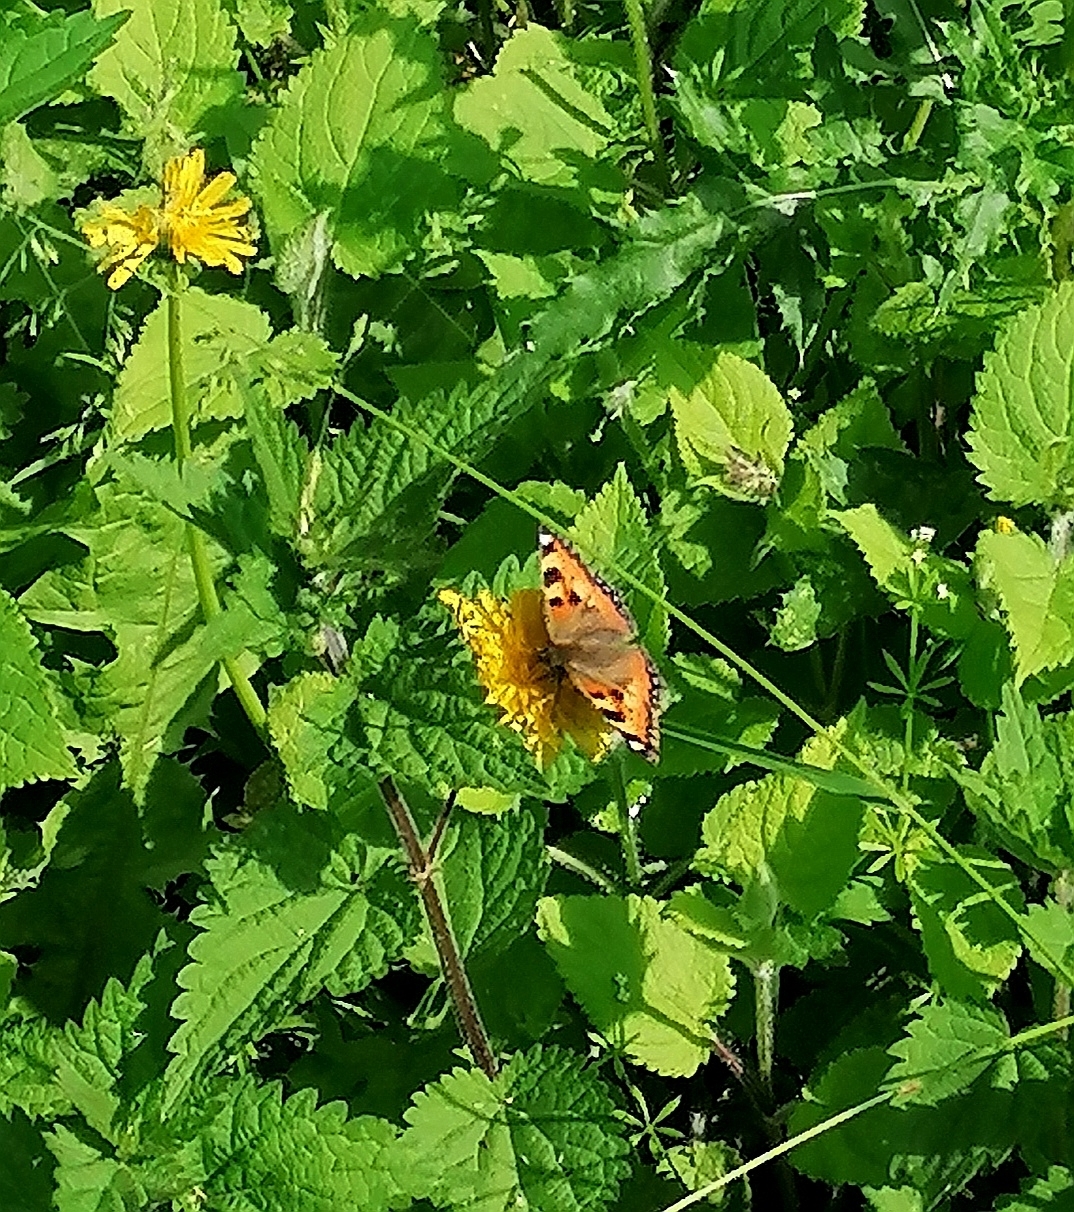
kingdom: Animalia
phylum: Arthropoda
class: Insecta
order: Lepidoptera
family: Nymphalidae
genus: Aglais
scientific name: Aglais urticae
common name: Small tortoiseshell
